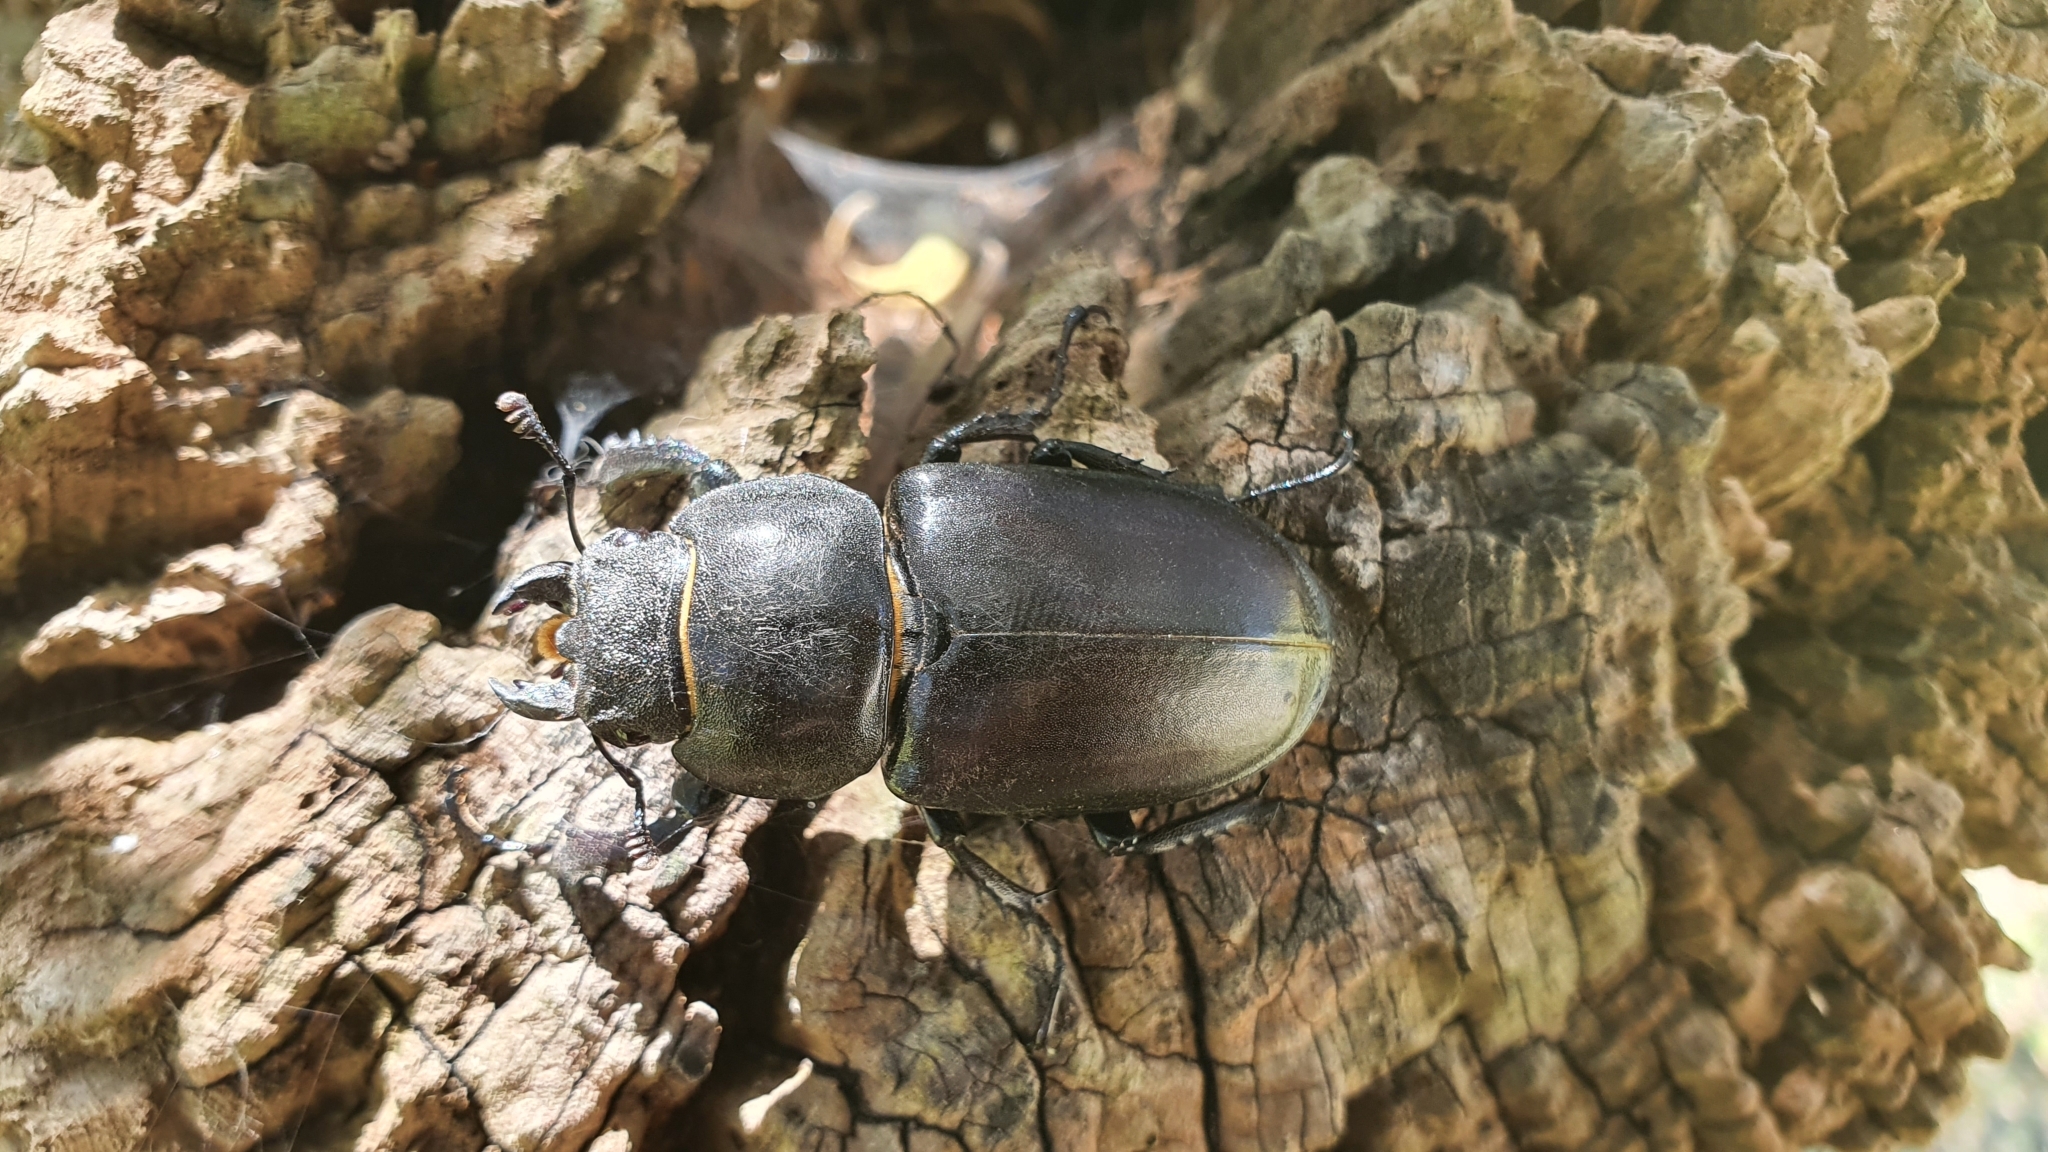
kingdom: Animalia
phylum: Arthropoda
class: Insecta
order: Coleoptera
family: Lucanidae
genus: Lucanus
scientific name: Lucanus cervus
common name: Stag beetle
